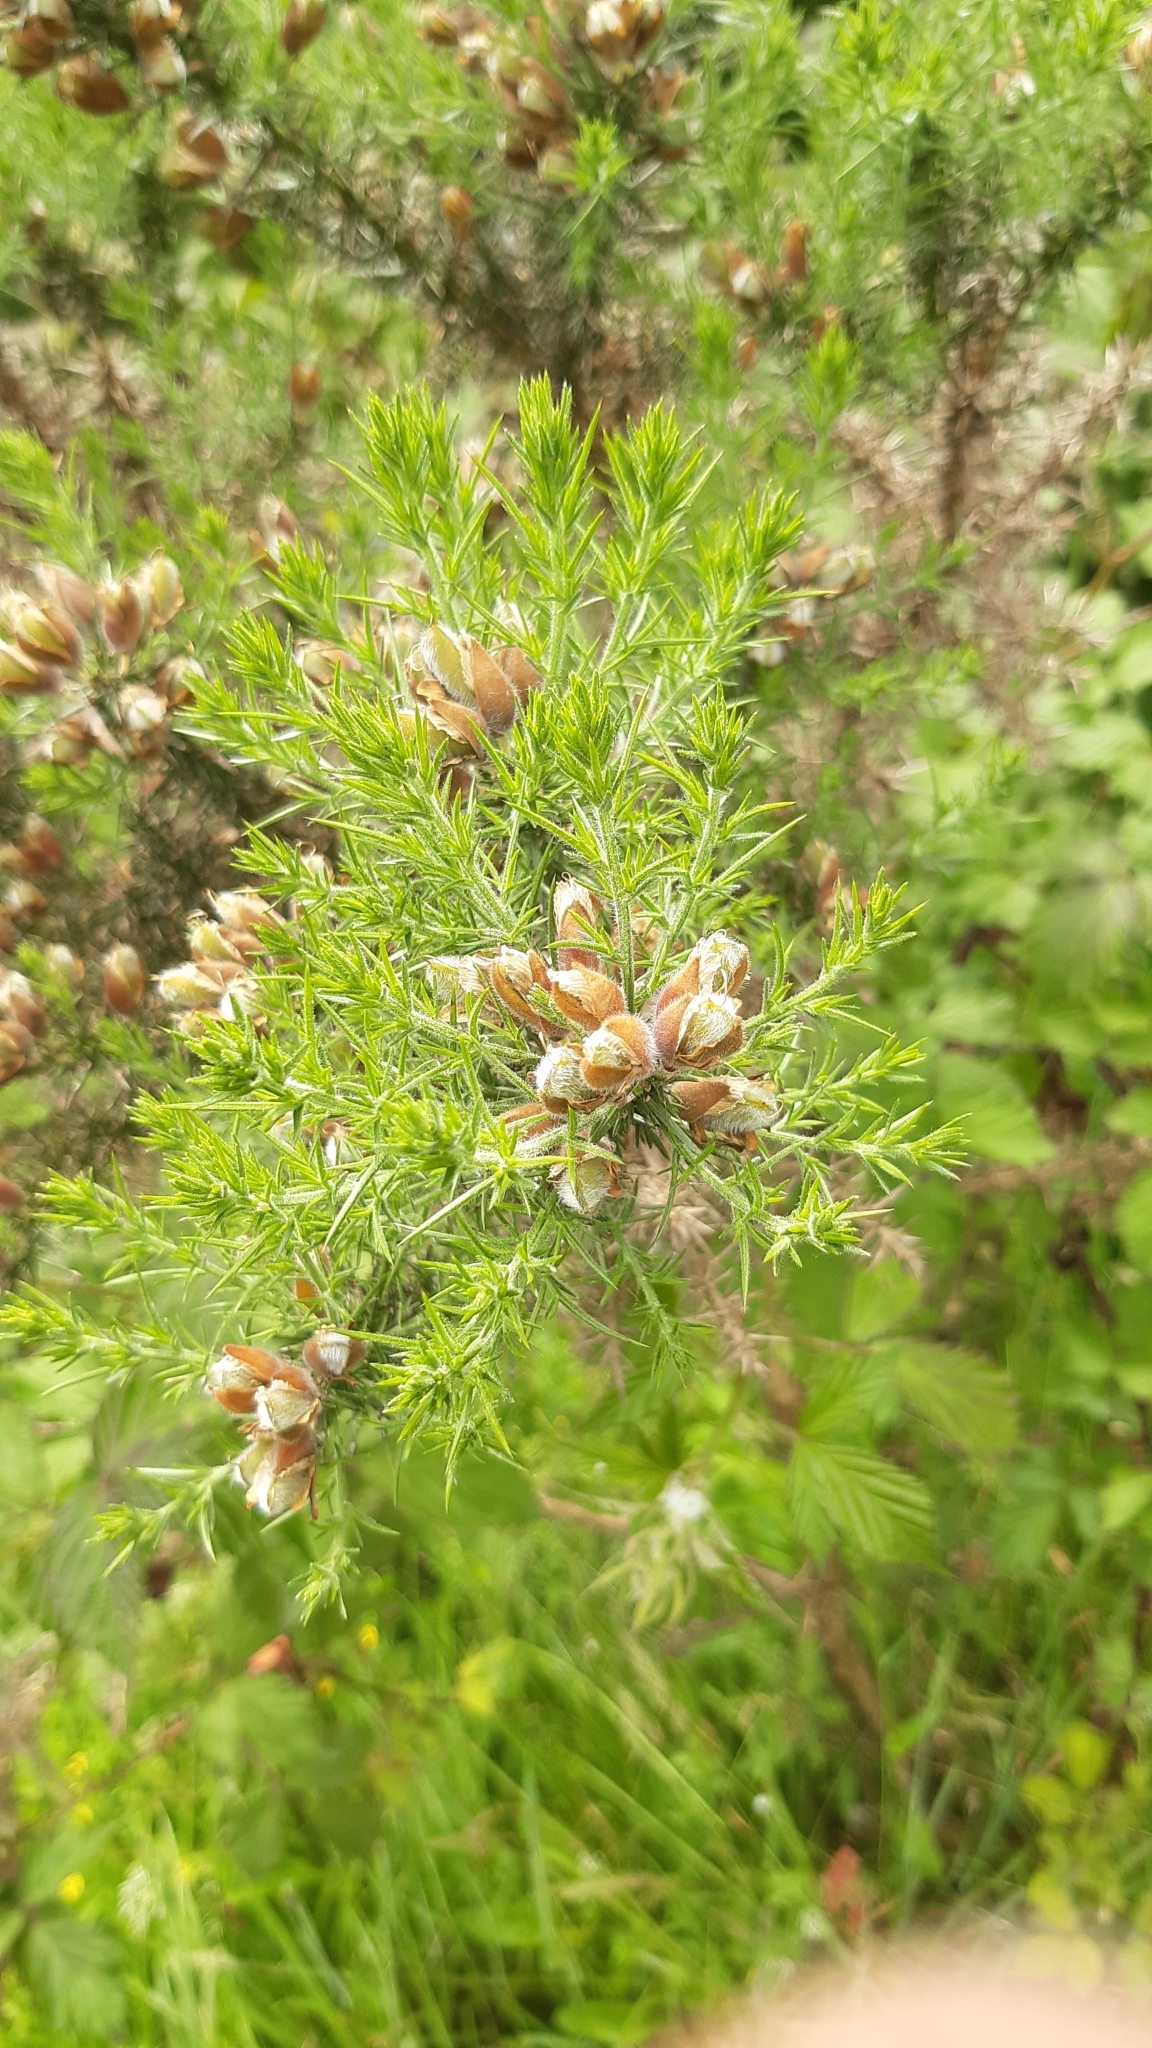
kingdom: Plantae
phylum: Tracheophyta
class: Magnoliopsida
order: Fabales
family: Fabaceae
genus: Ulex
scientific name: Ulex europaeus
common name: Common gorse
